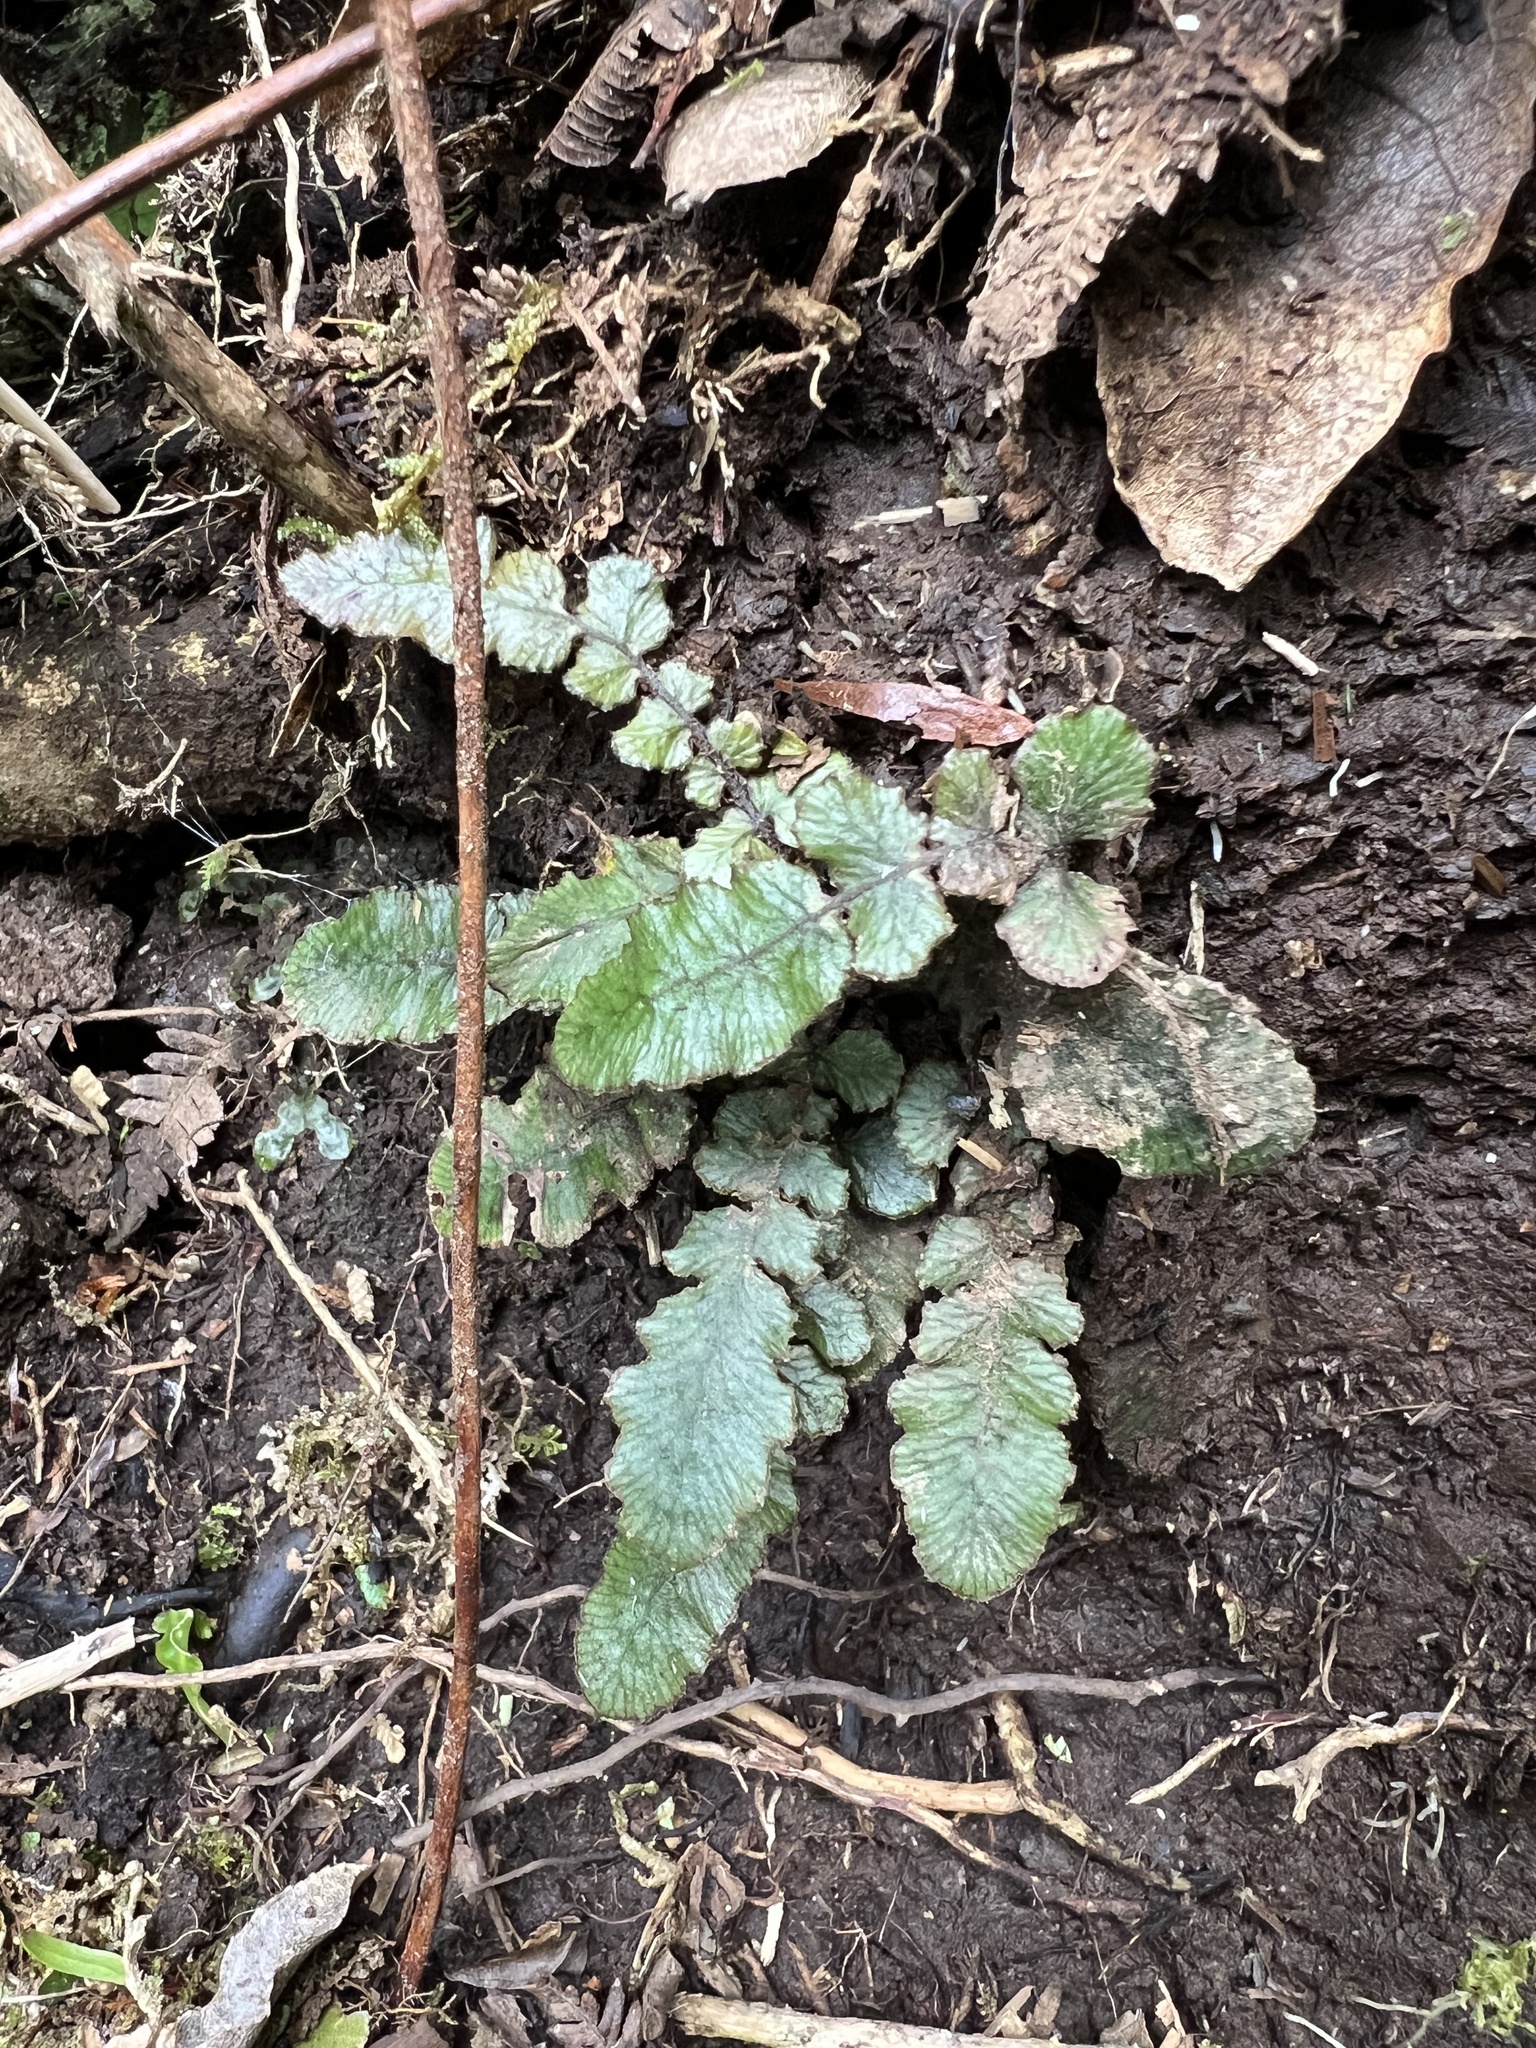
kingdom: Plantae
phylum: Tracheophyta
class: Polypodiopsida
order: Polypodiales
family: Blechnaceae
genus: Cranfillia
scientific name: Cranfillia nigra
